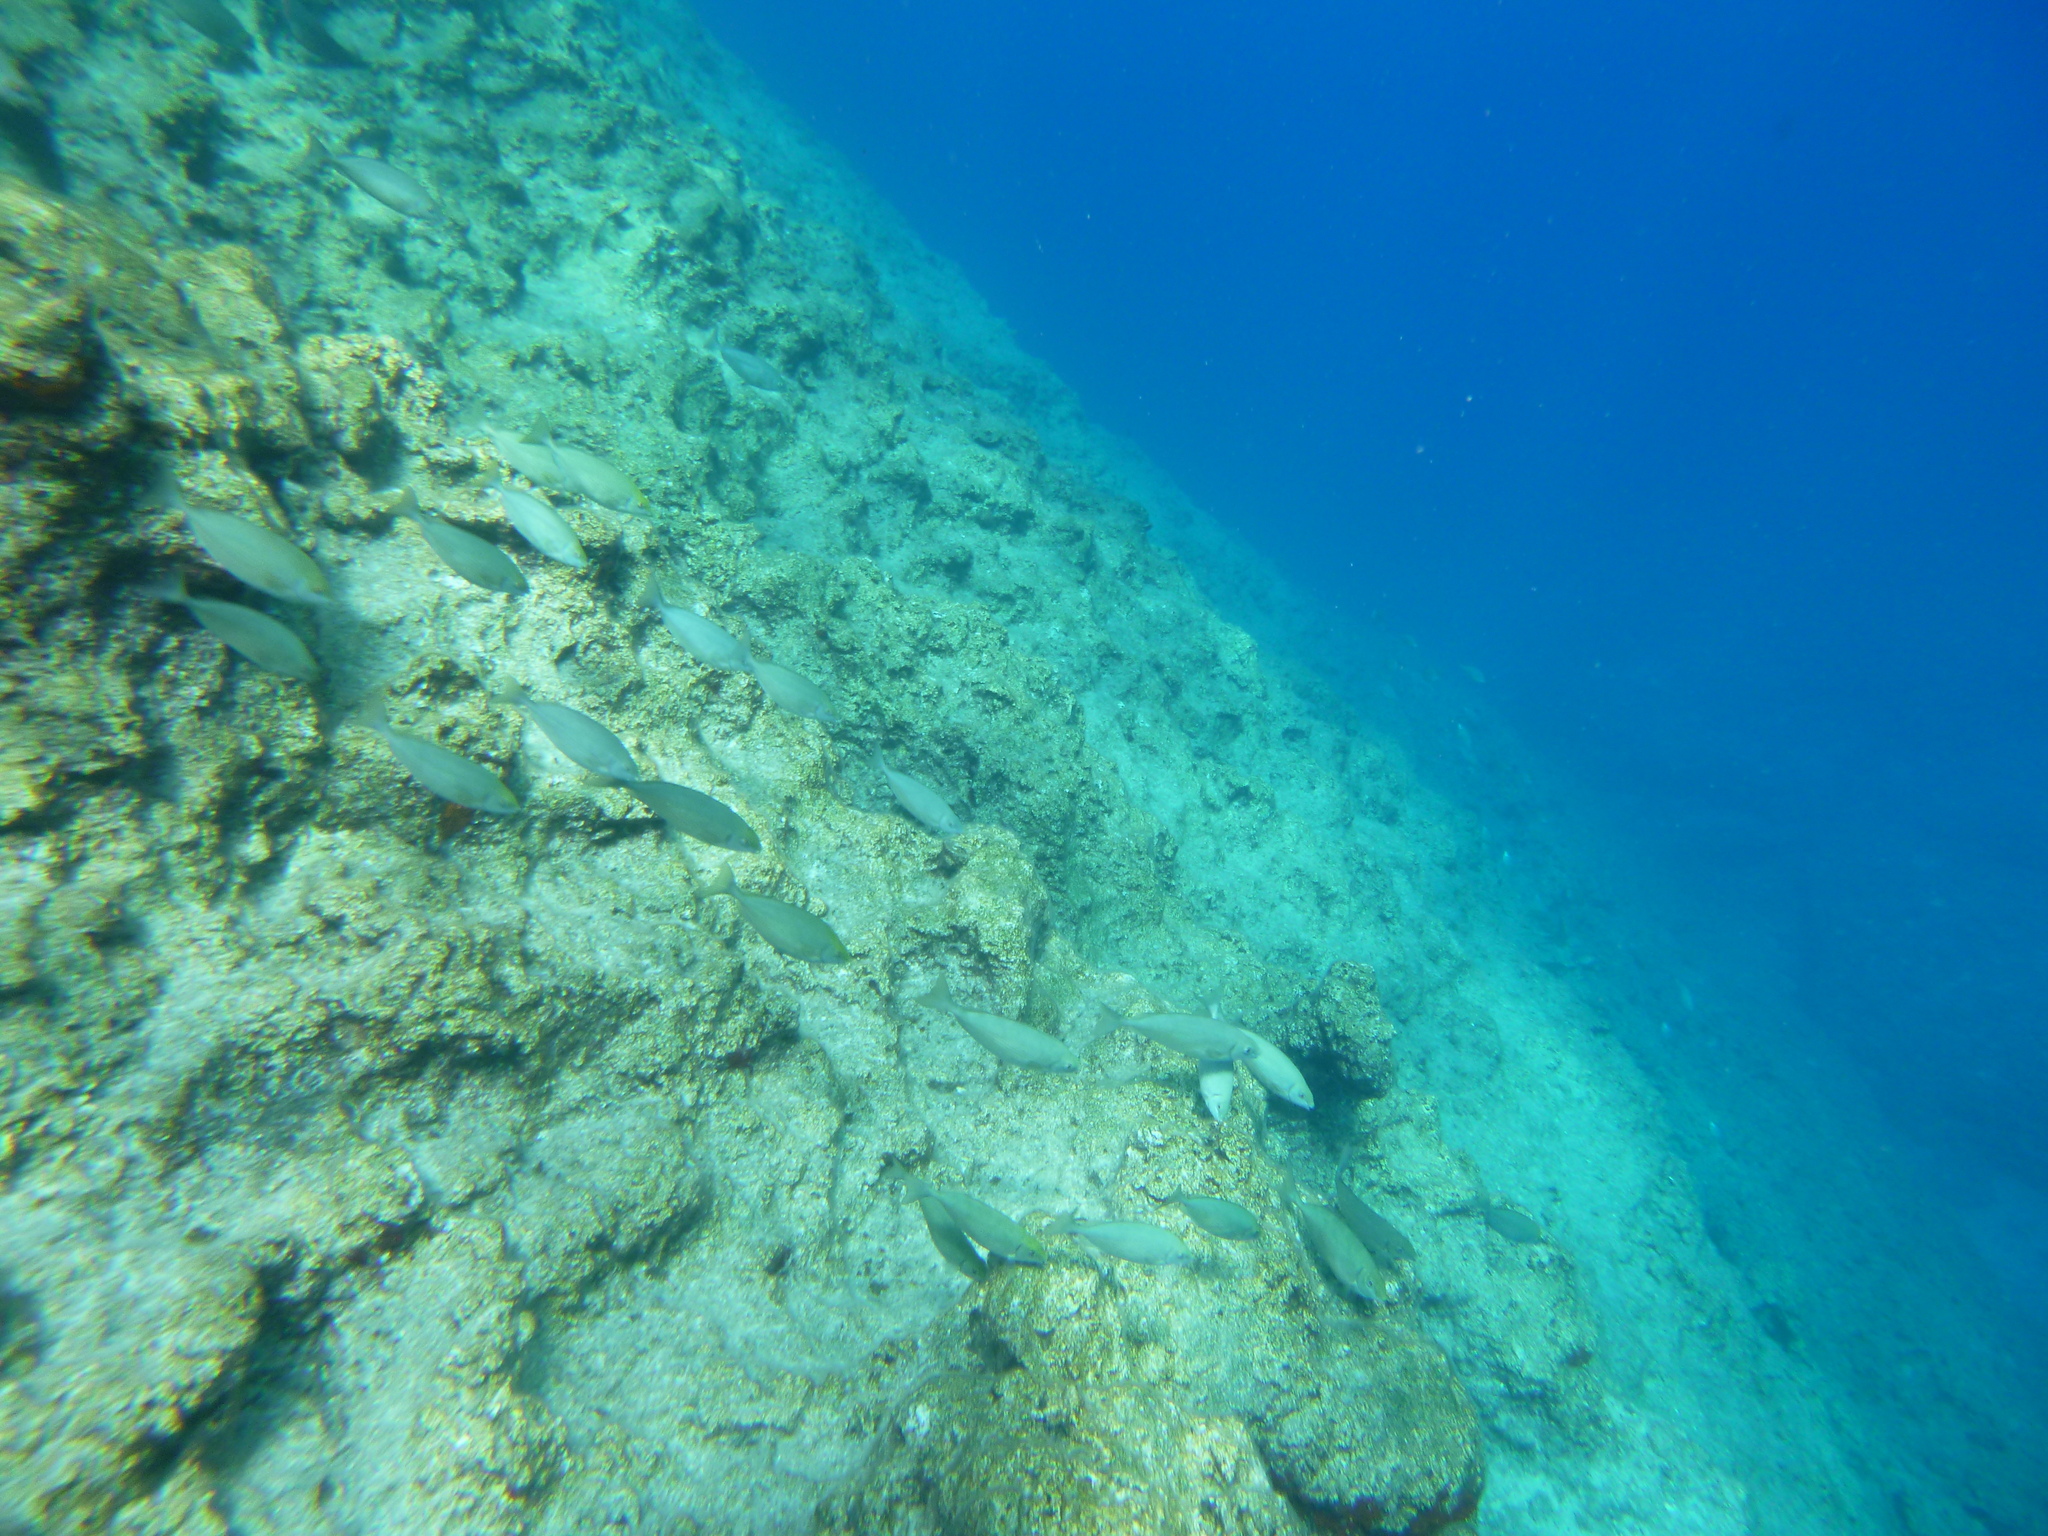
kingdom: Animalia
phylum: Chordata
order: Perciformes
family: Siganidae
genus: Siganus
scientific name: Siganus rivulatus
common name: Marbled spinefoot
